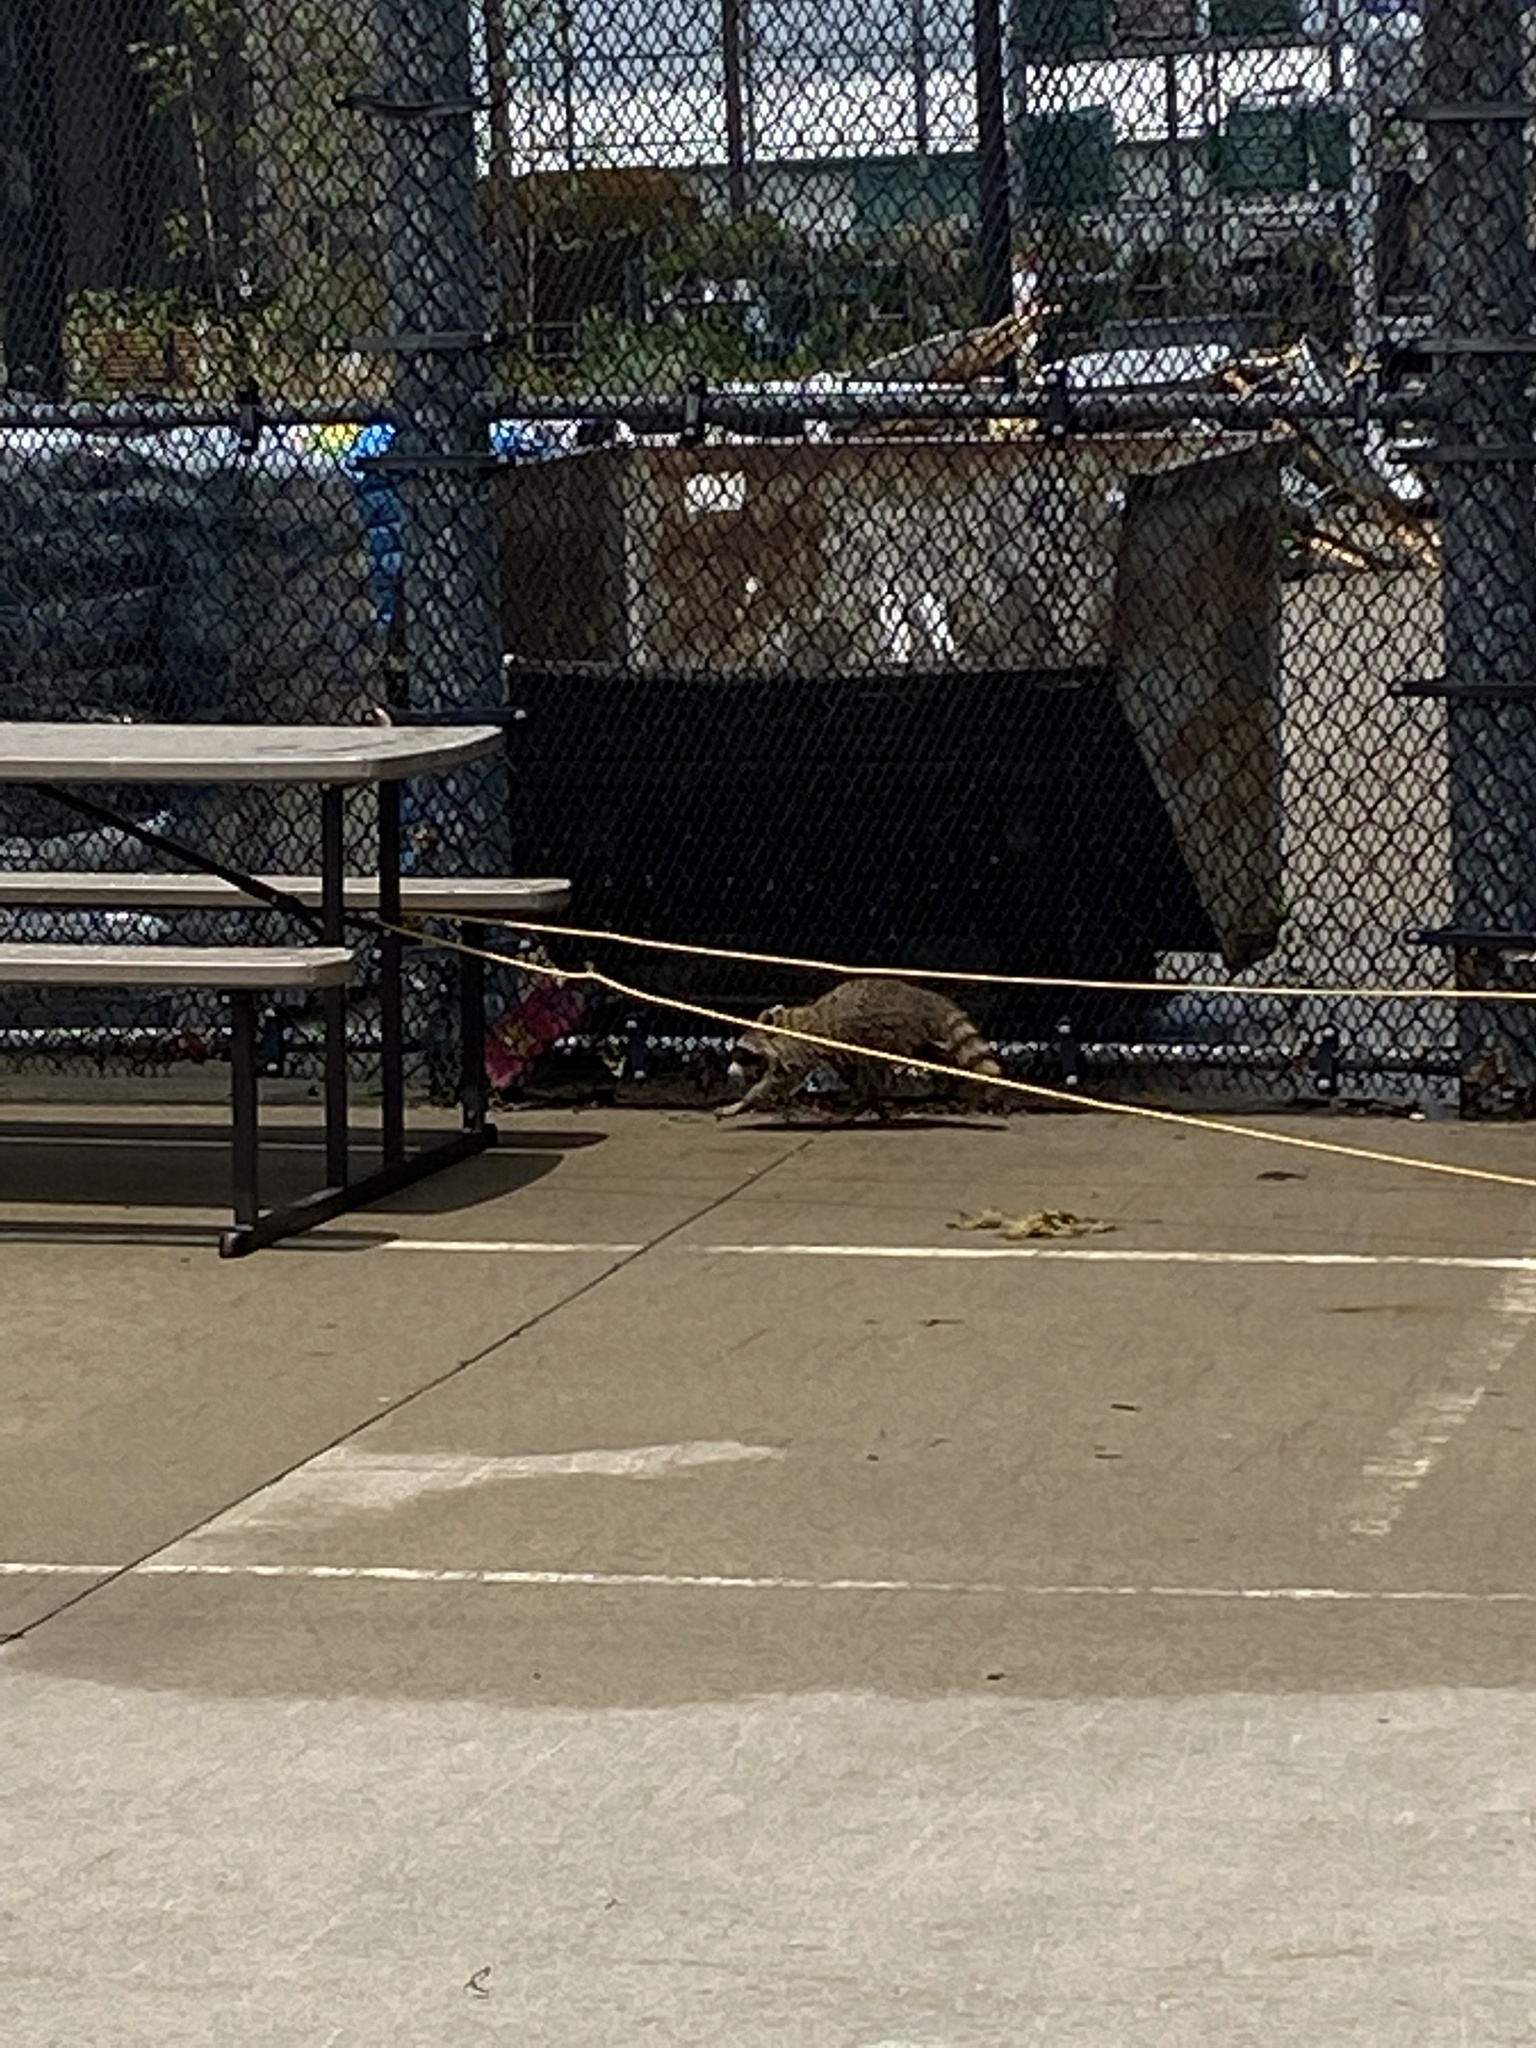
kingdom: Animalia
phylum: Chordata
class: Mammalia
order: Carnivora
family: Procyonidae
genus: Procyon
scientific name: Procyon lotor
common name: Raccoon
